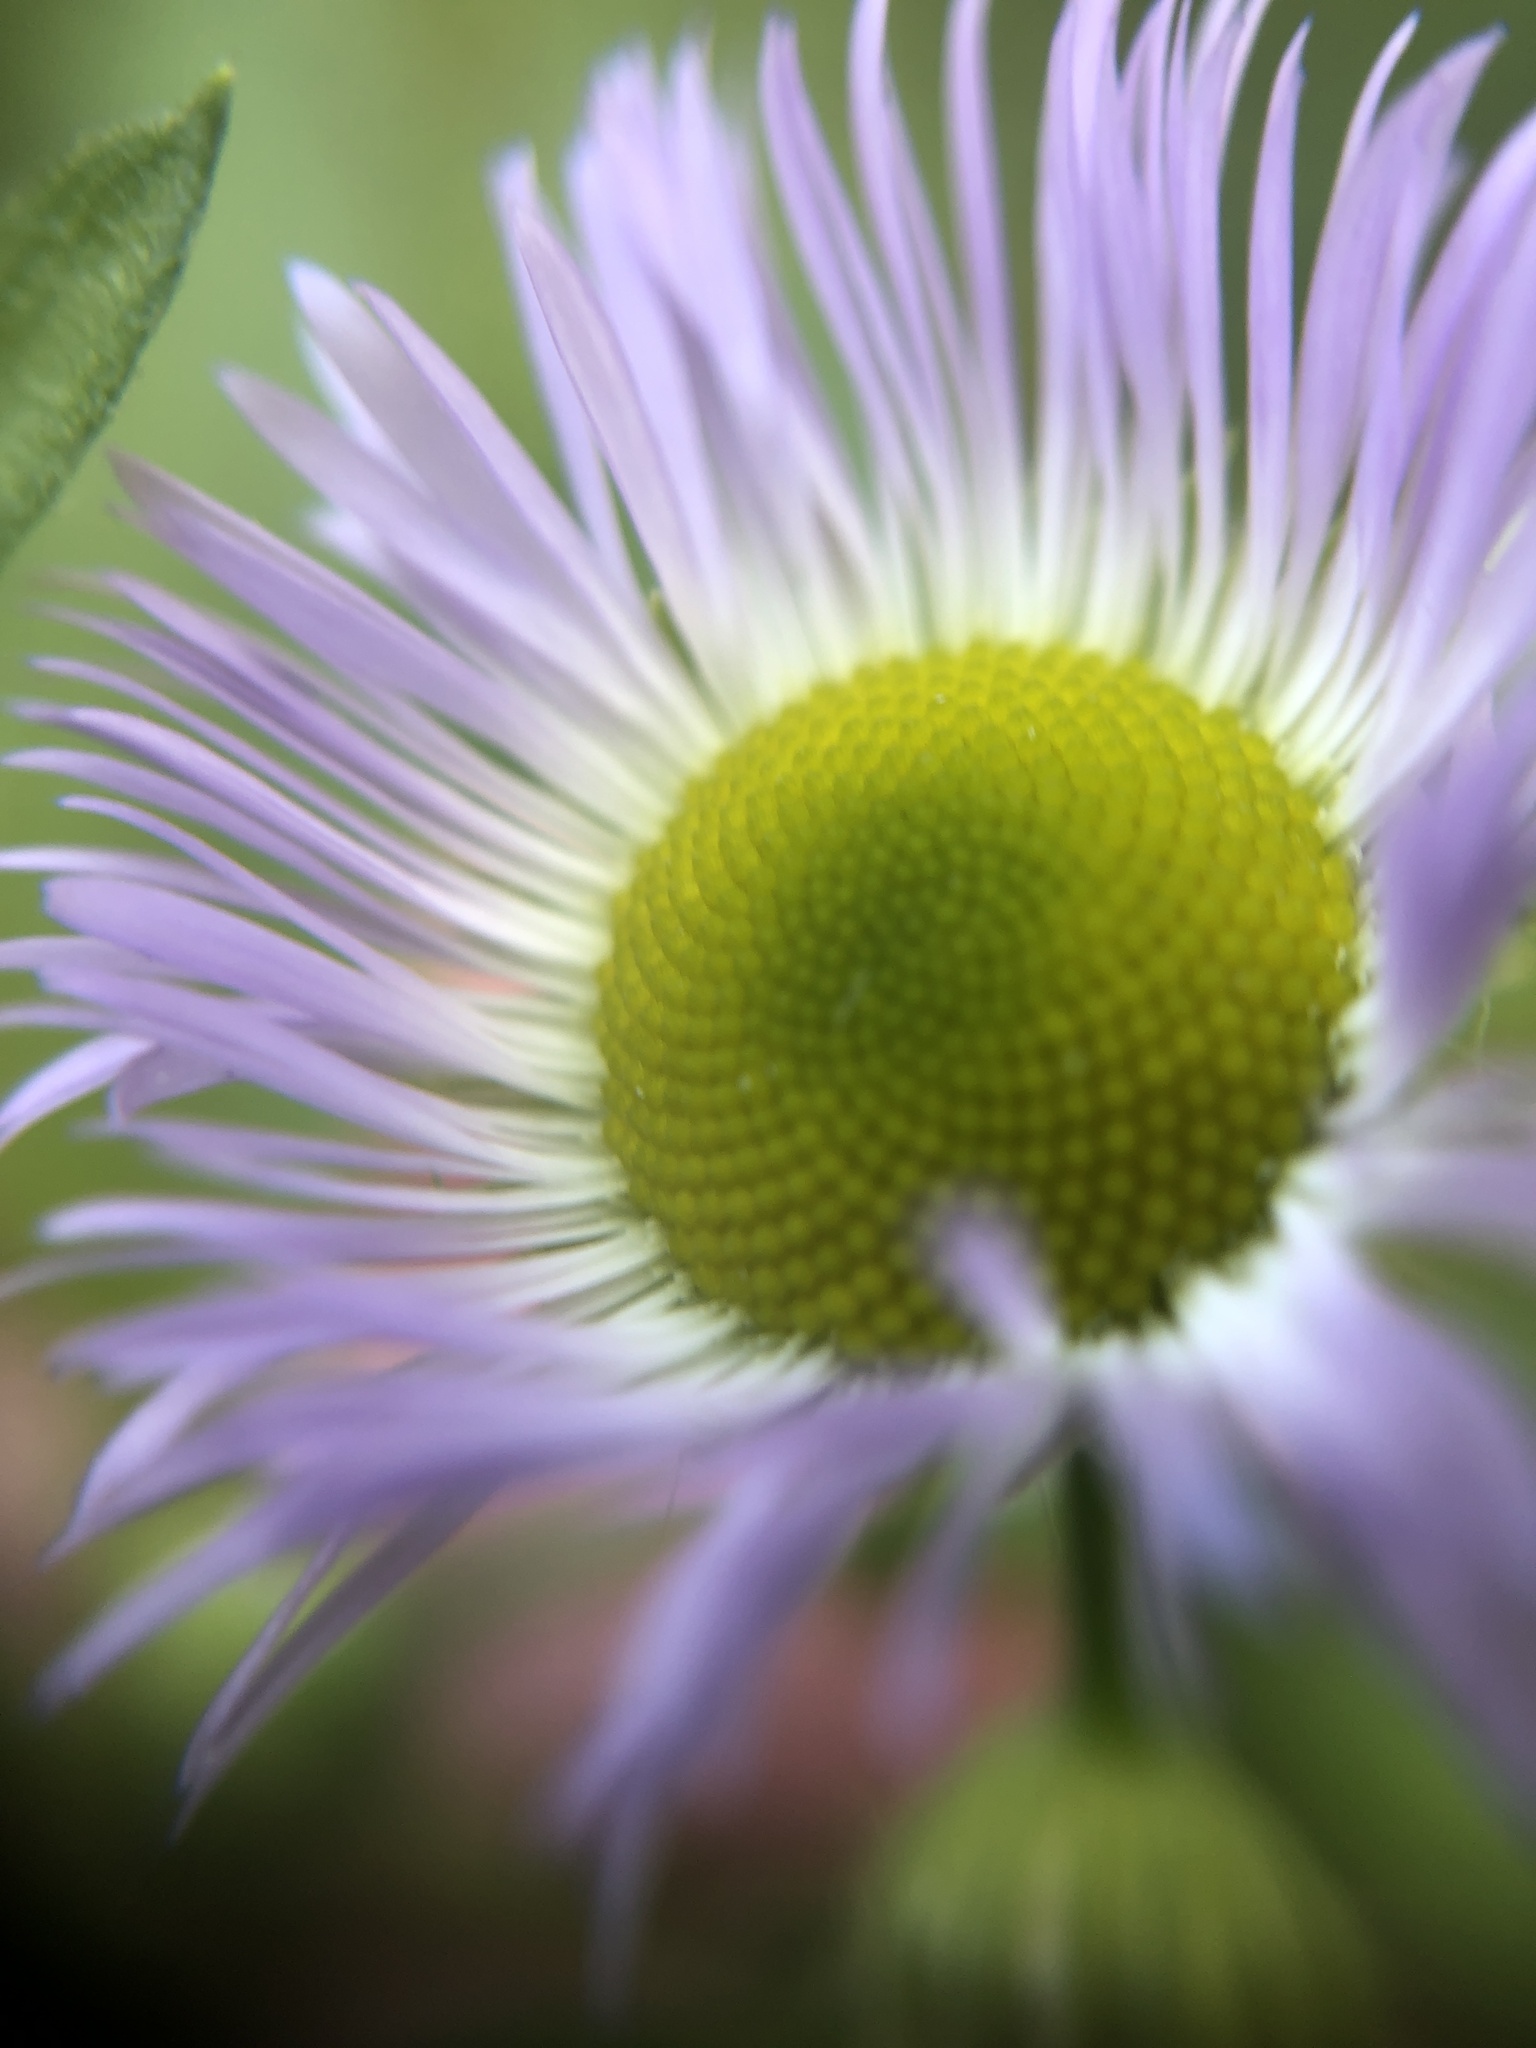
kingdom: Plantae
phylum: Tracheophyta
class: Magnoliopsida
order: Asterales
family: Asteraceae
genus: Erigeron
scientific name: Erigeron annuus
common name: Tall fleabane
